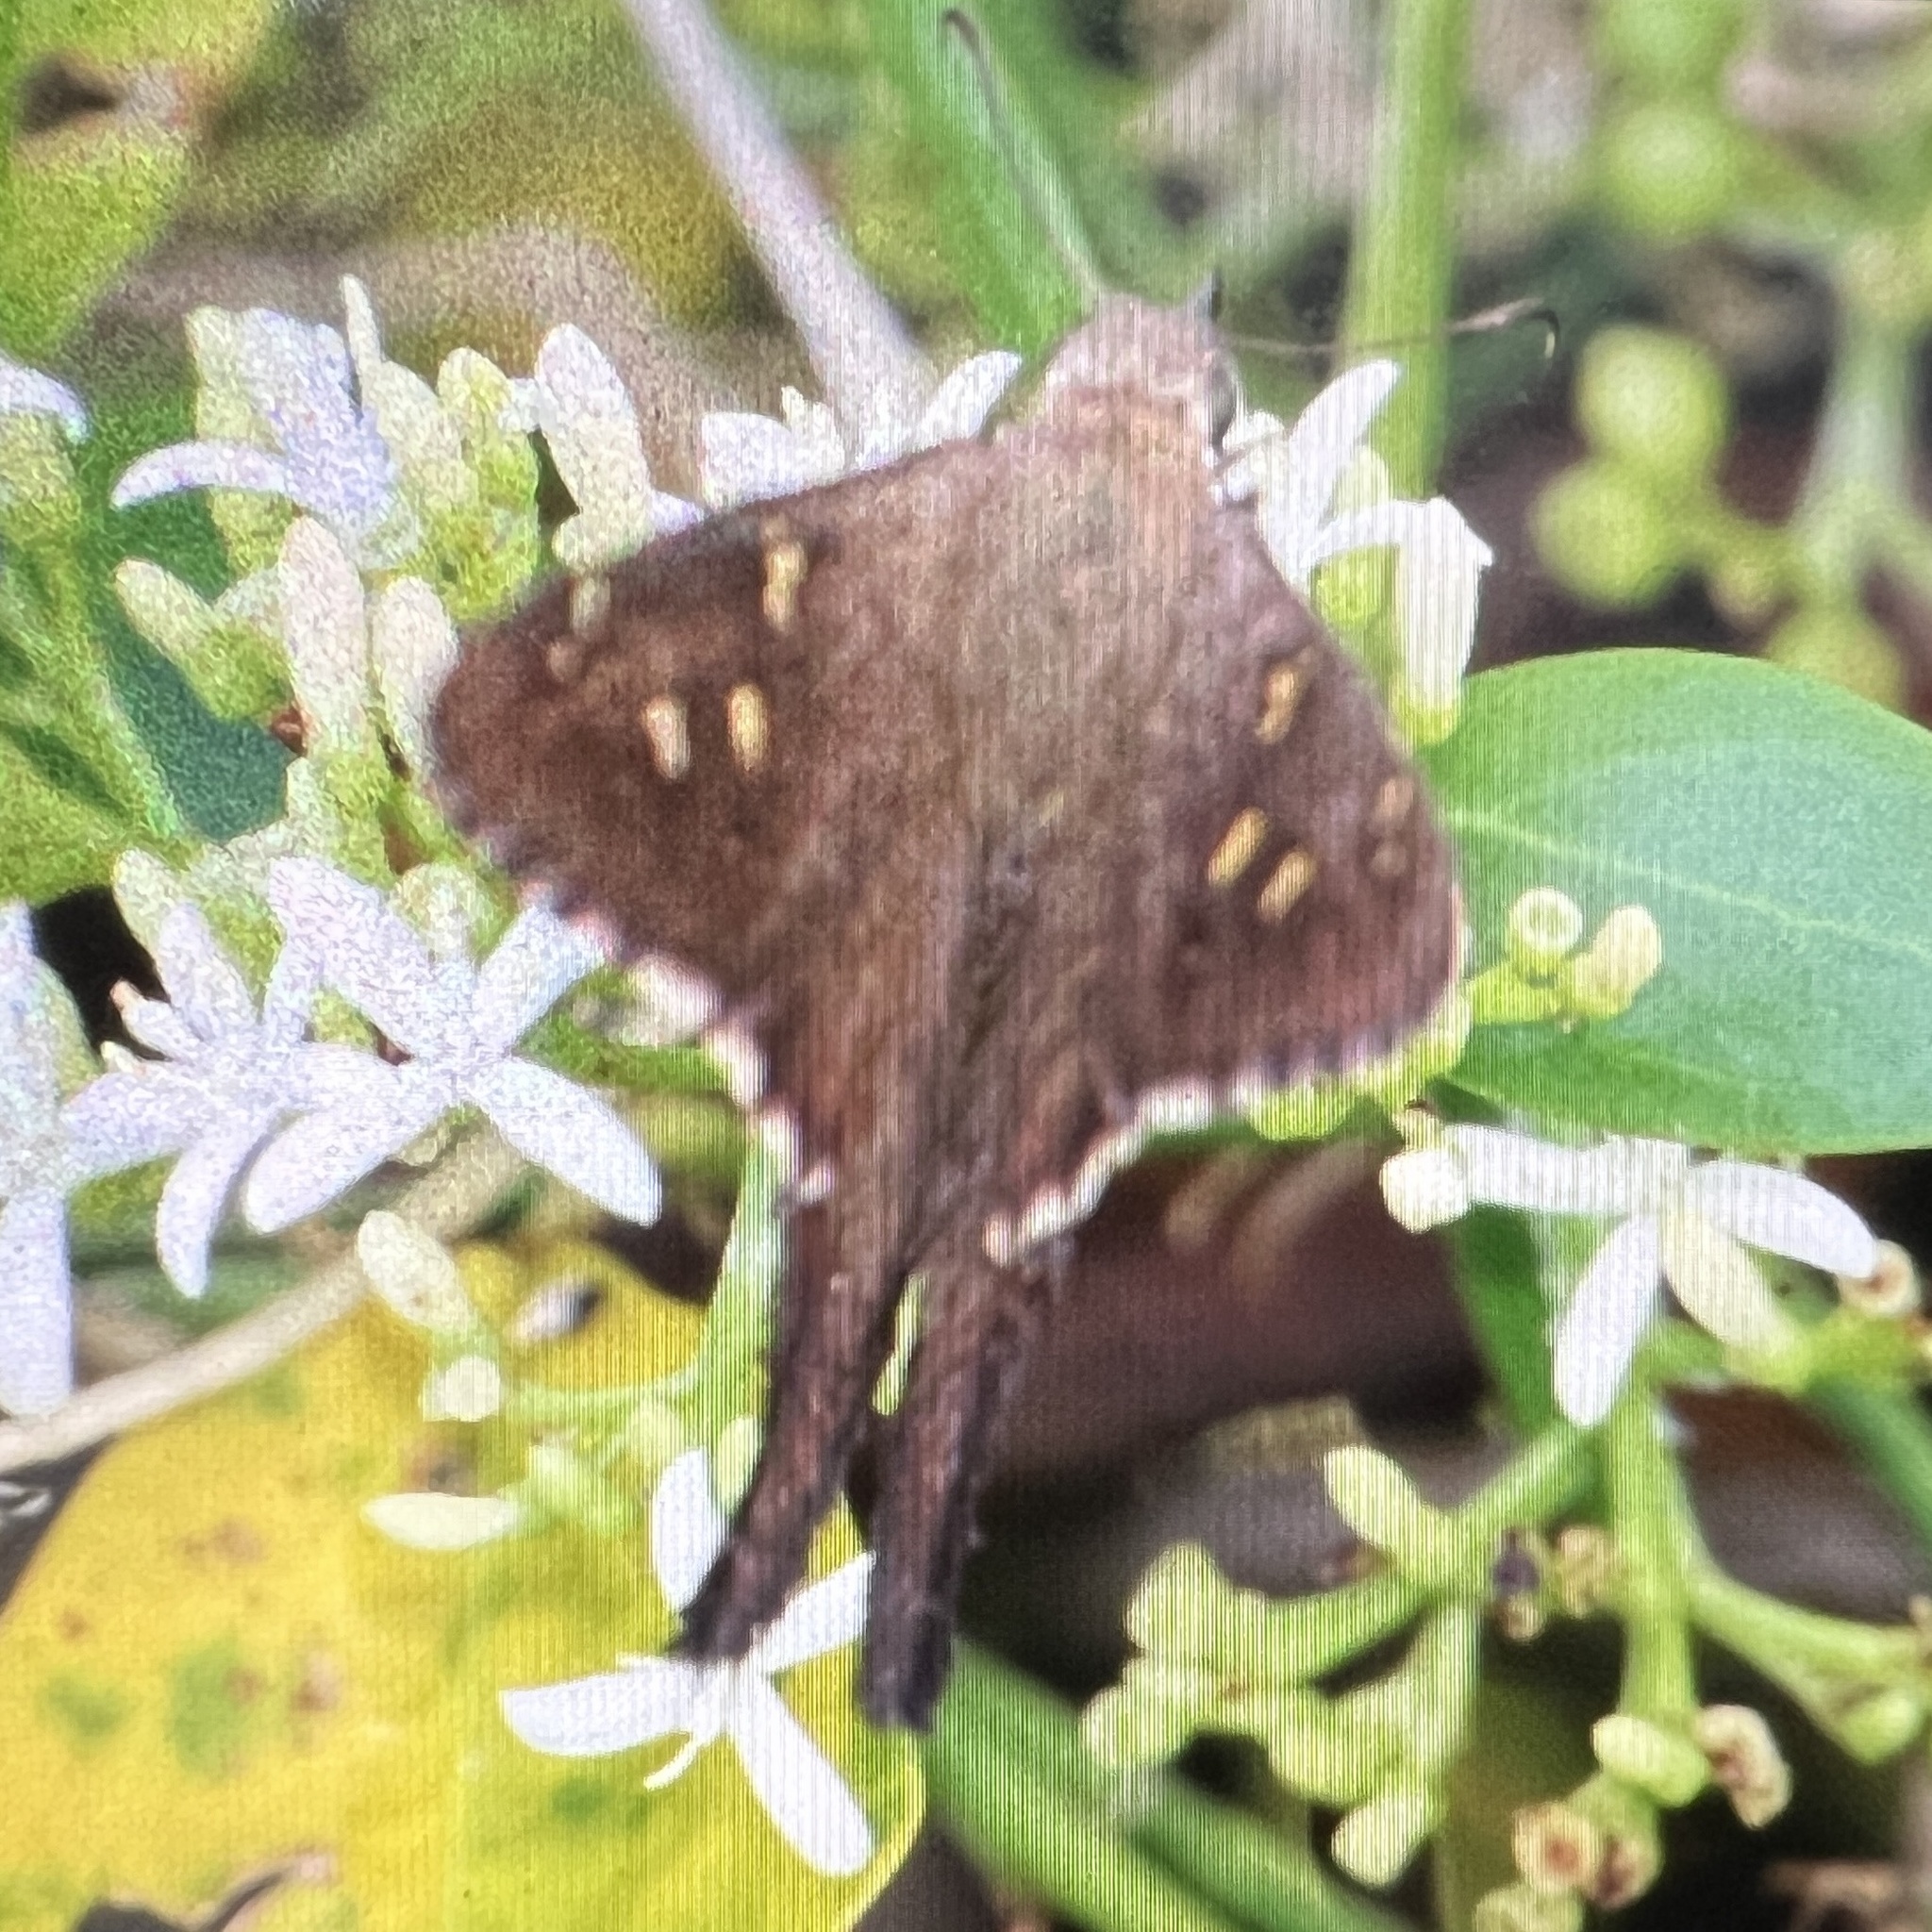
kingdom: Animalia
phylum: Arthropoda
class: Insecta
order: Lepidoptera
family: Hesperiidae
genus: Thorybes
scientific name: Thorybes
